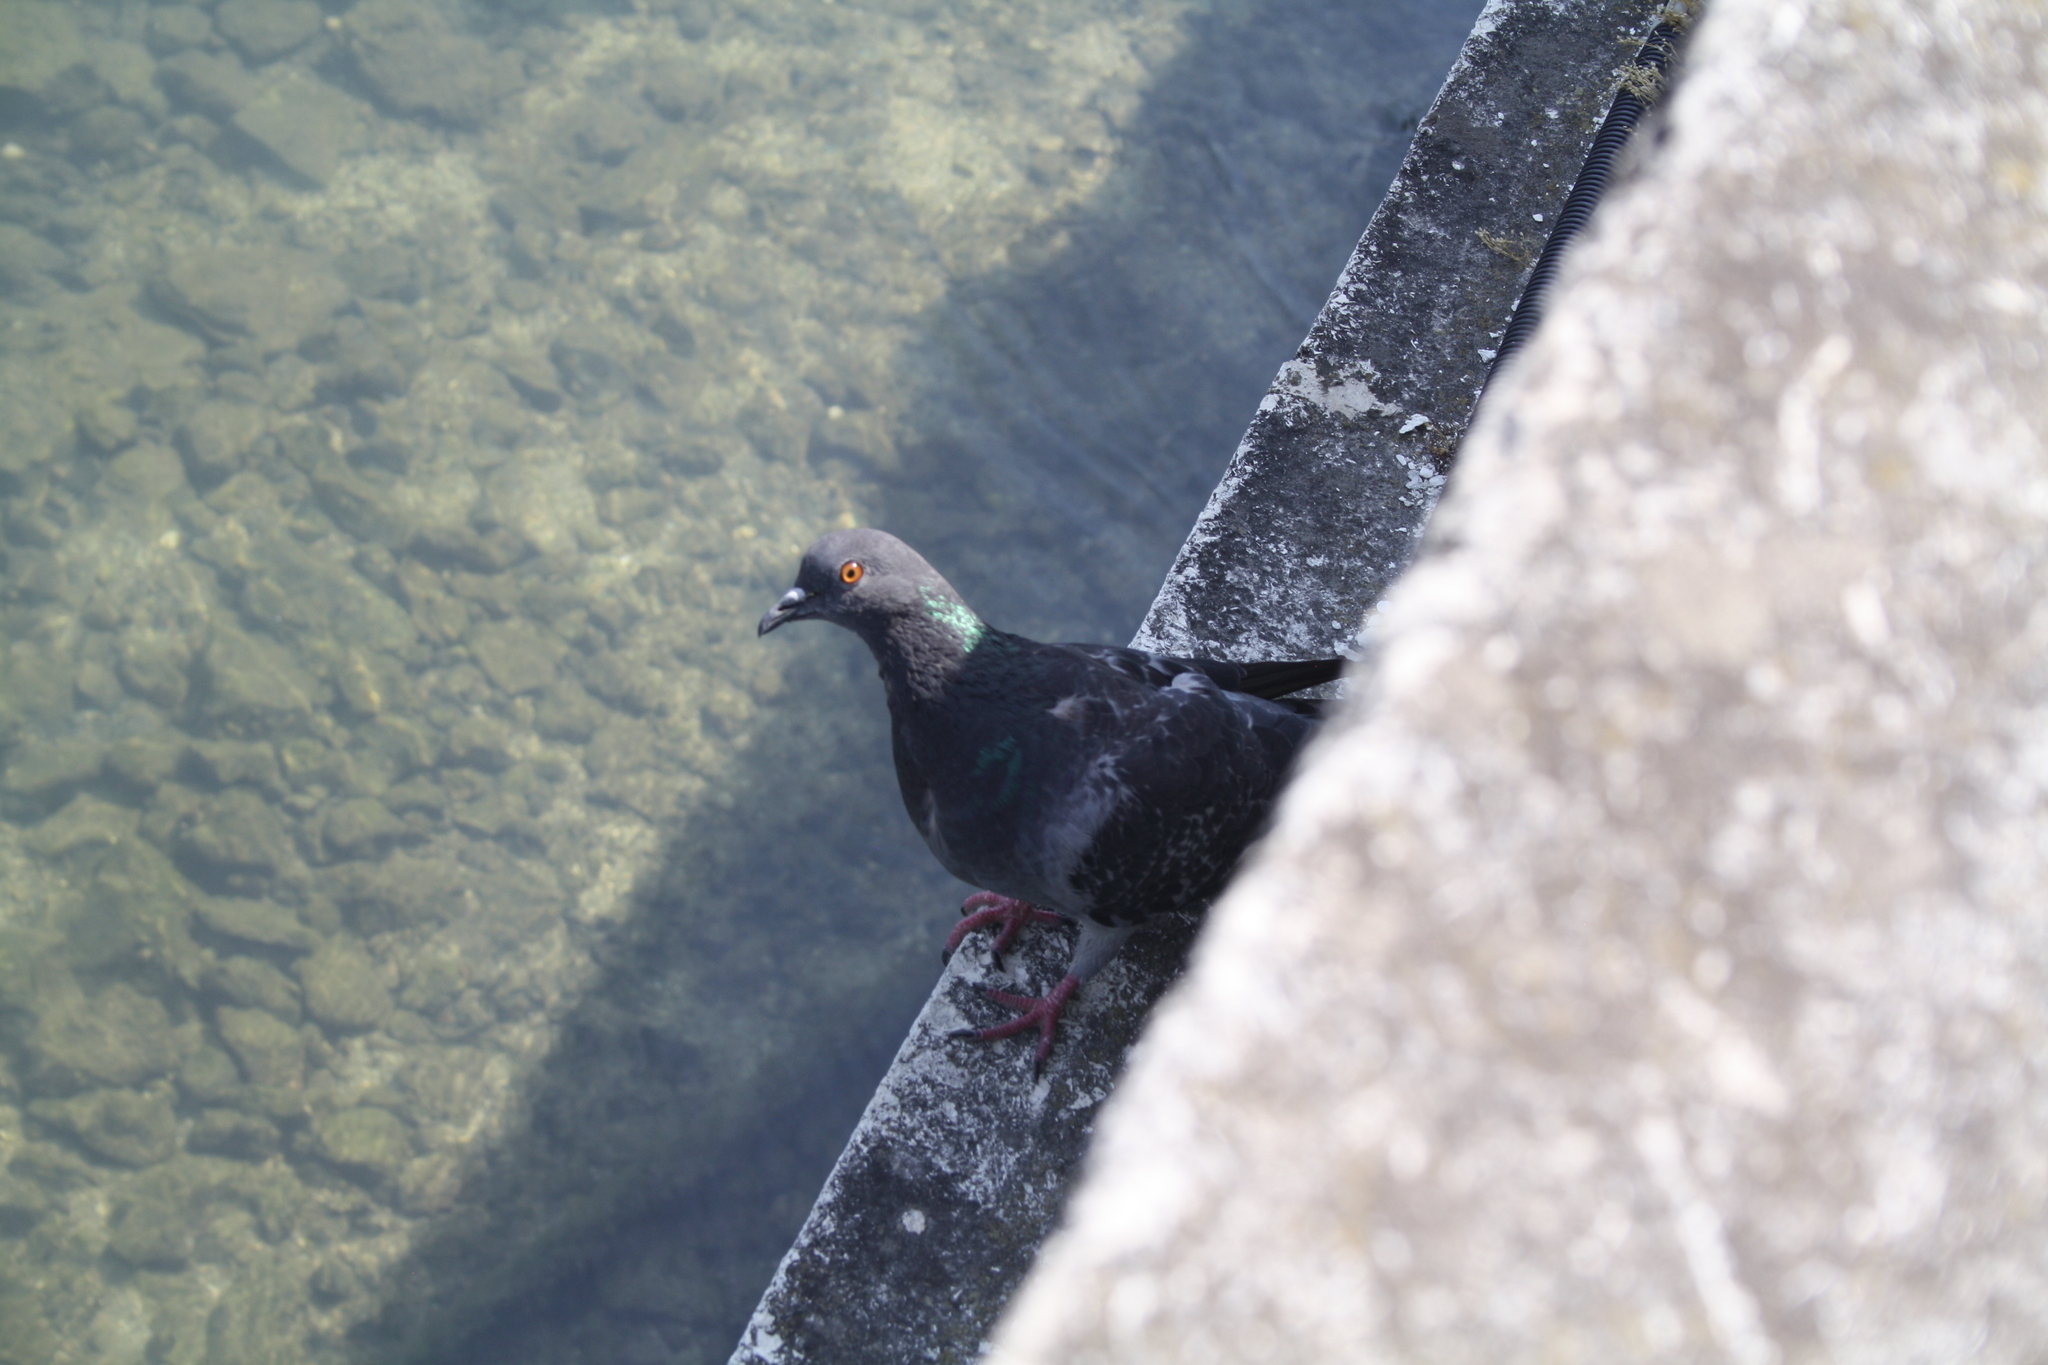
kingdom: Animalia
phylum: Chordata
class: Aves
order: Columbiformes
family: Columbidae
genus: Columba
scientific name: Columba livia
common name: Rock pigeon
